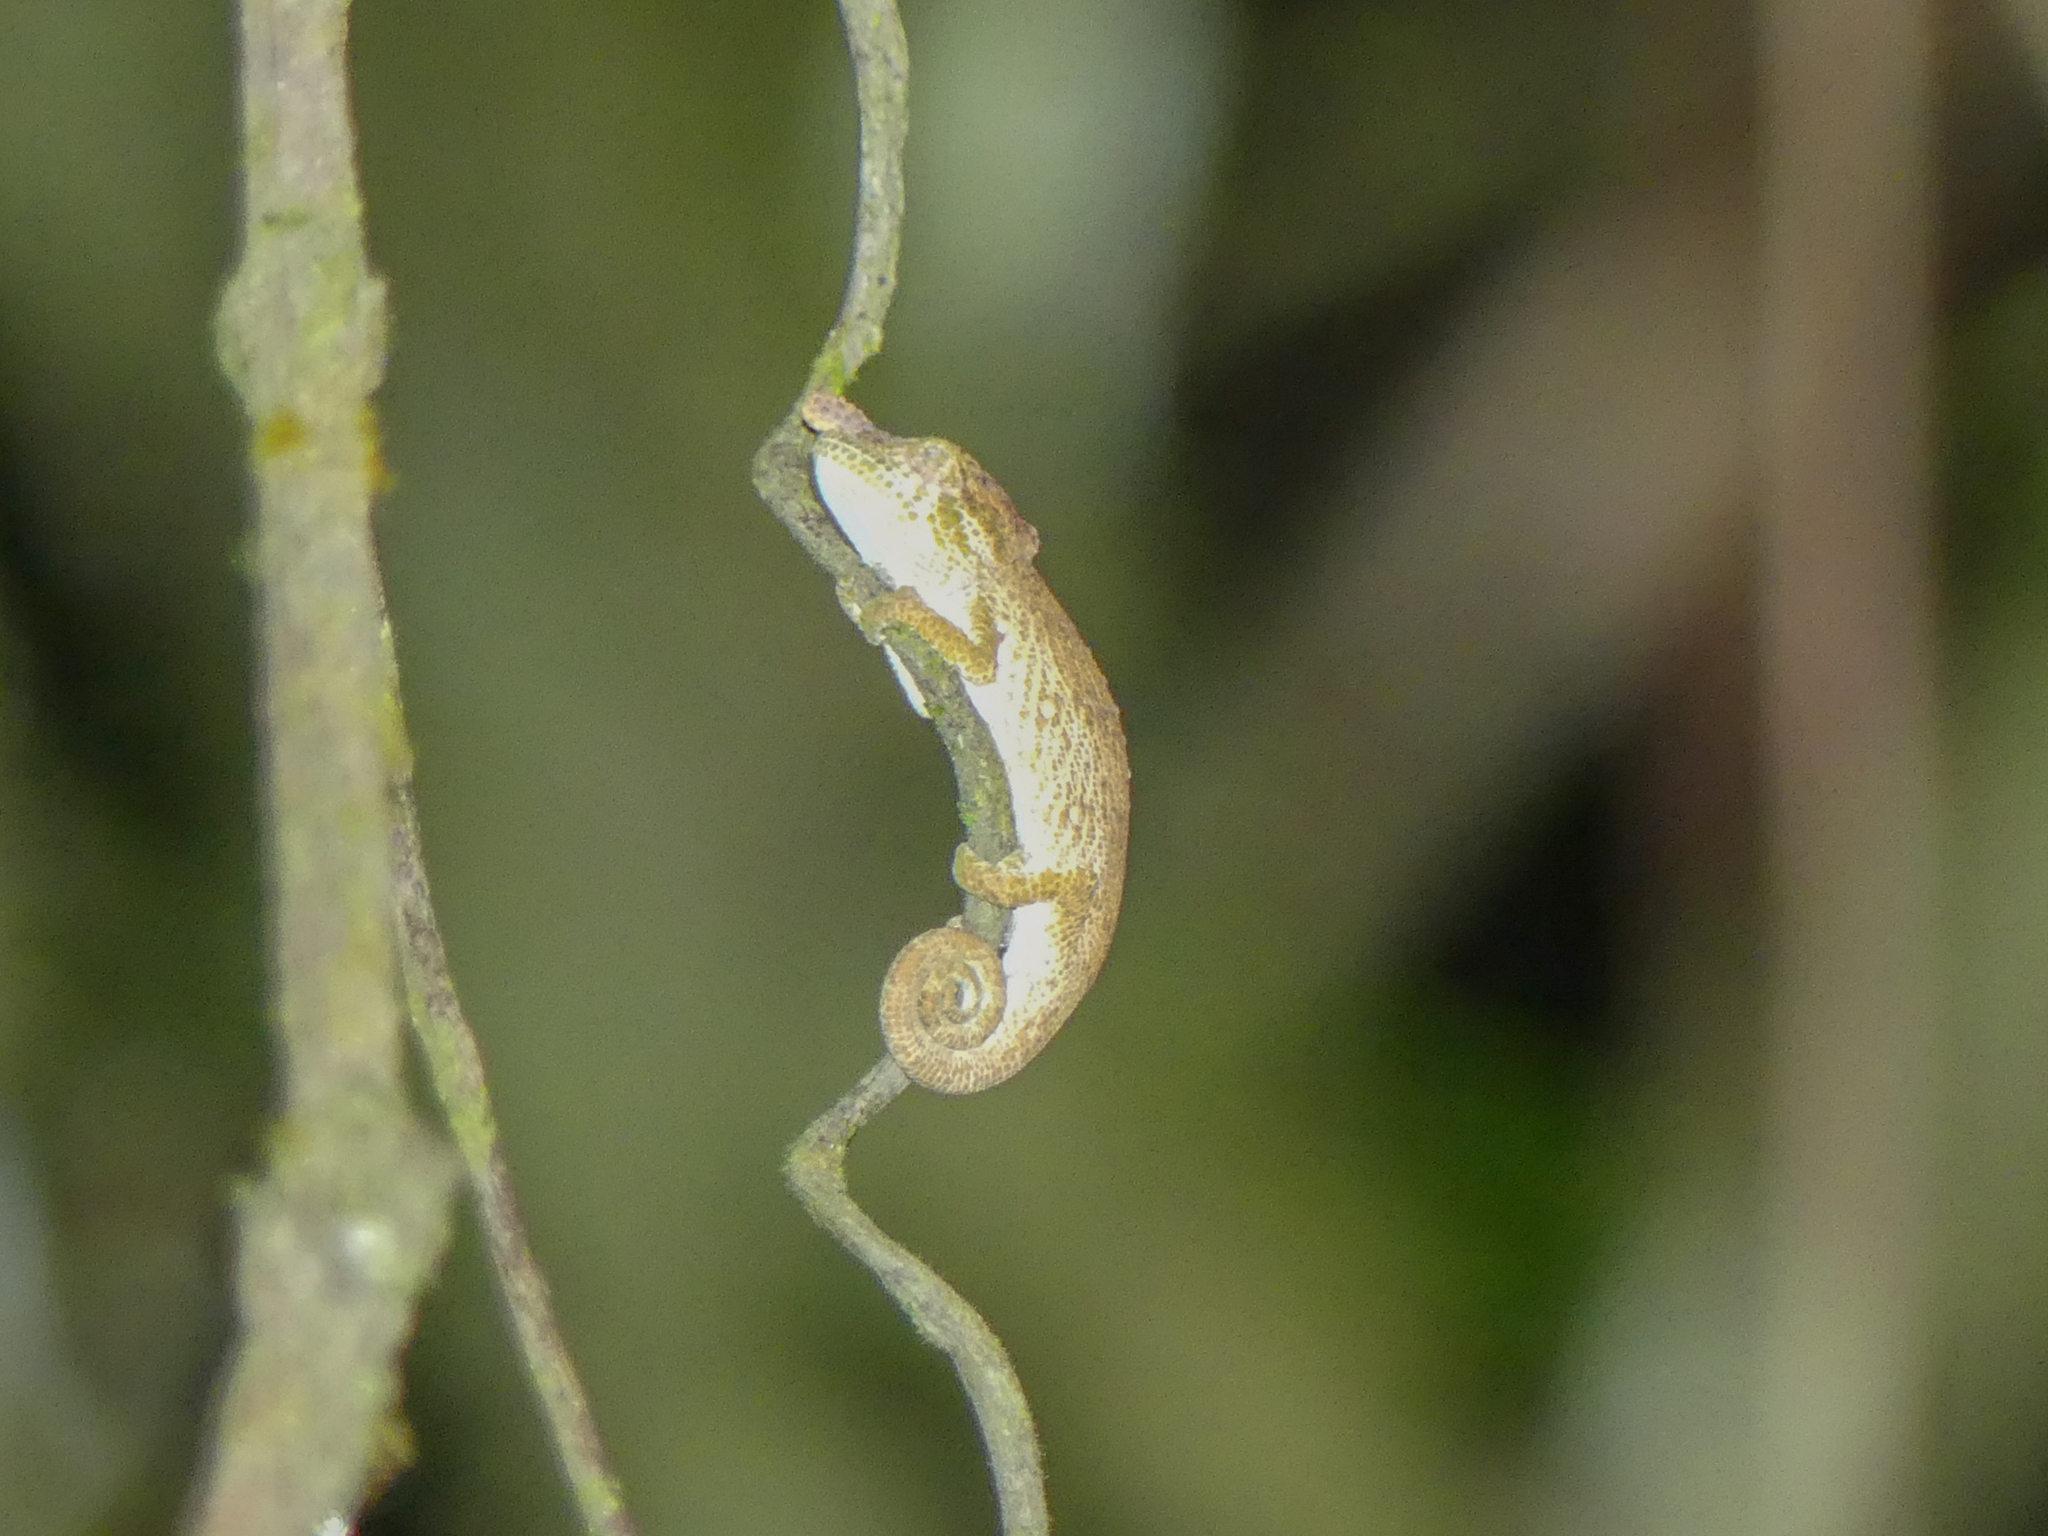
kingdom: Animalia
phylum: Chordata
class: Squamata
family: Chamaeleonidae
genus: Calumma
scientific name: Calumma fallax
